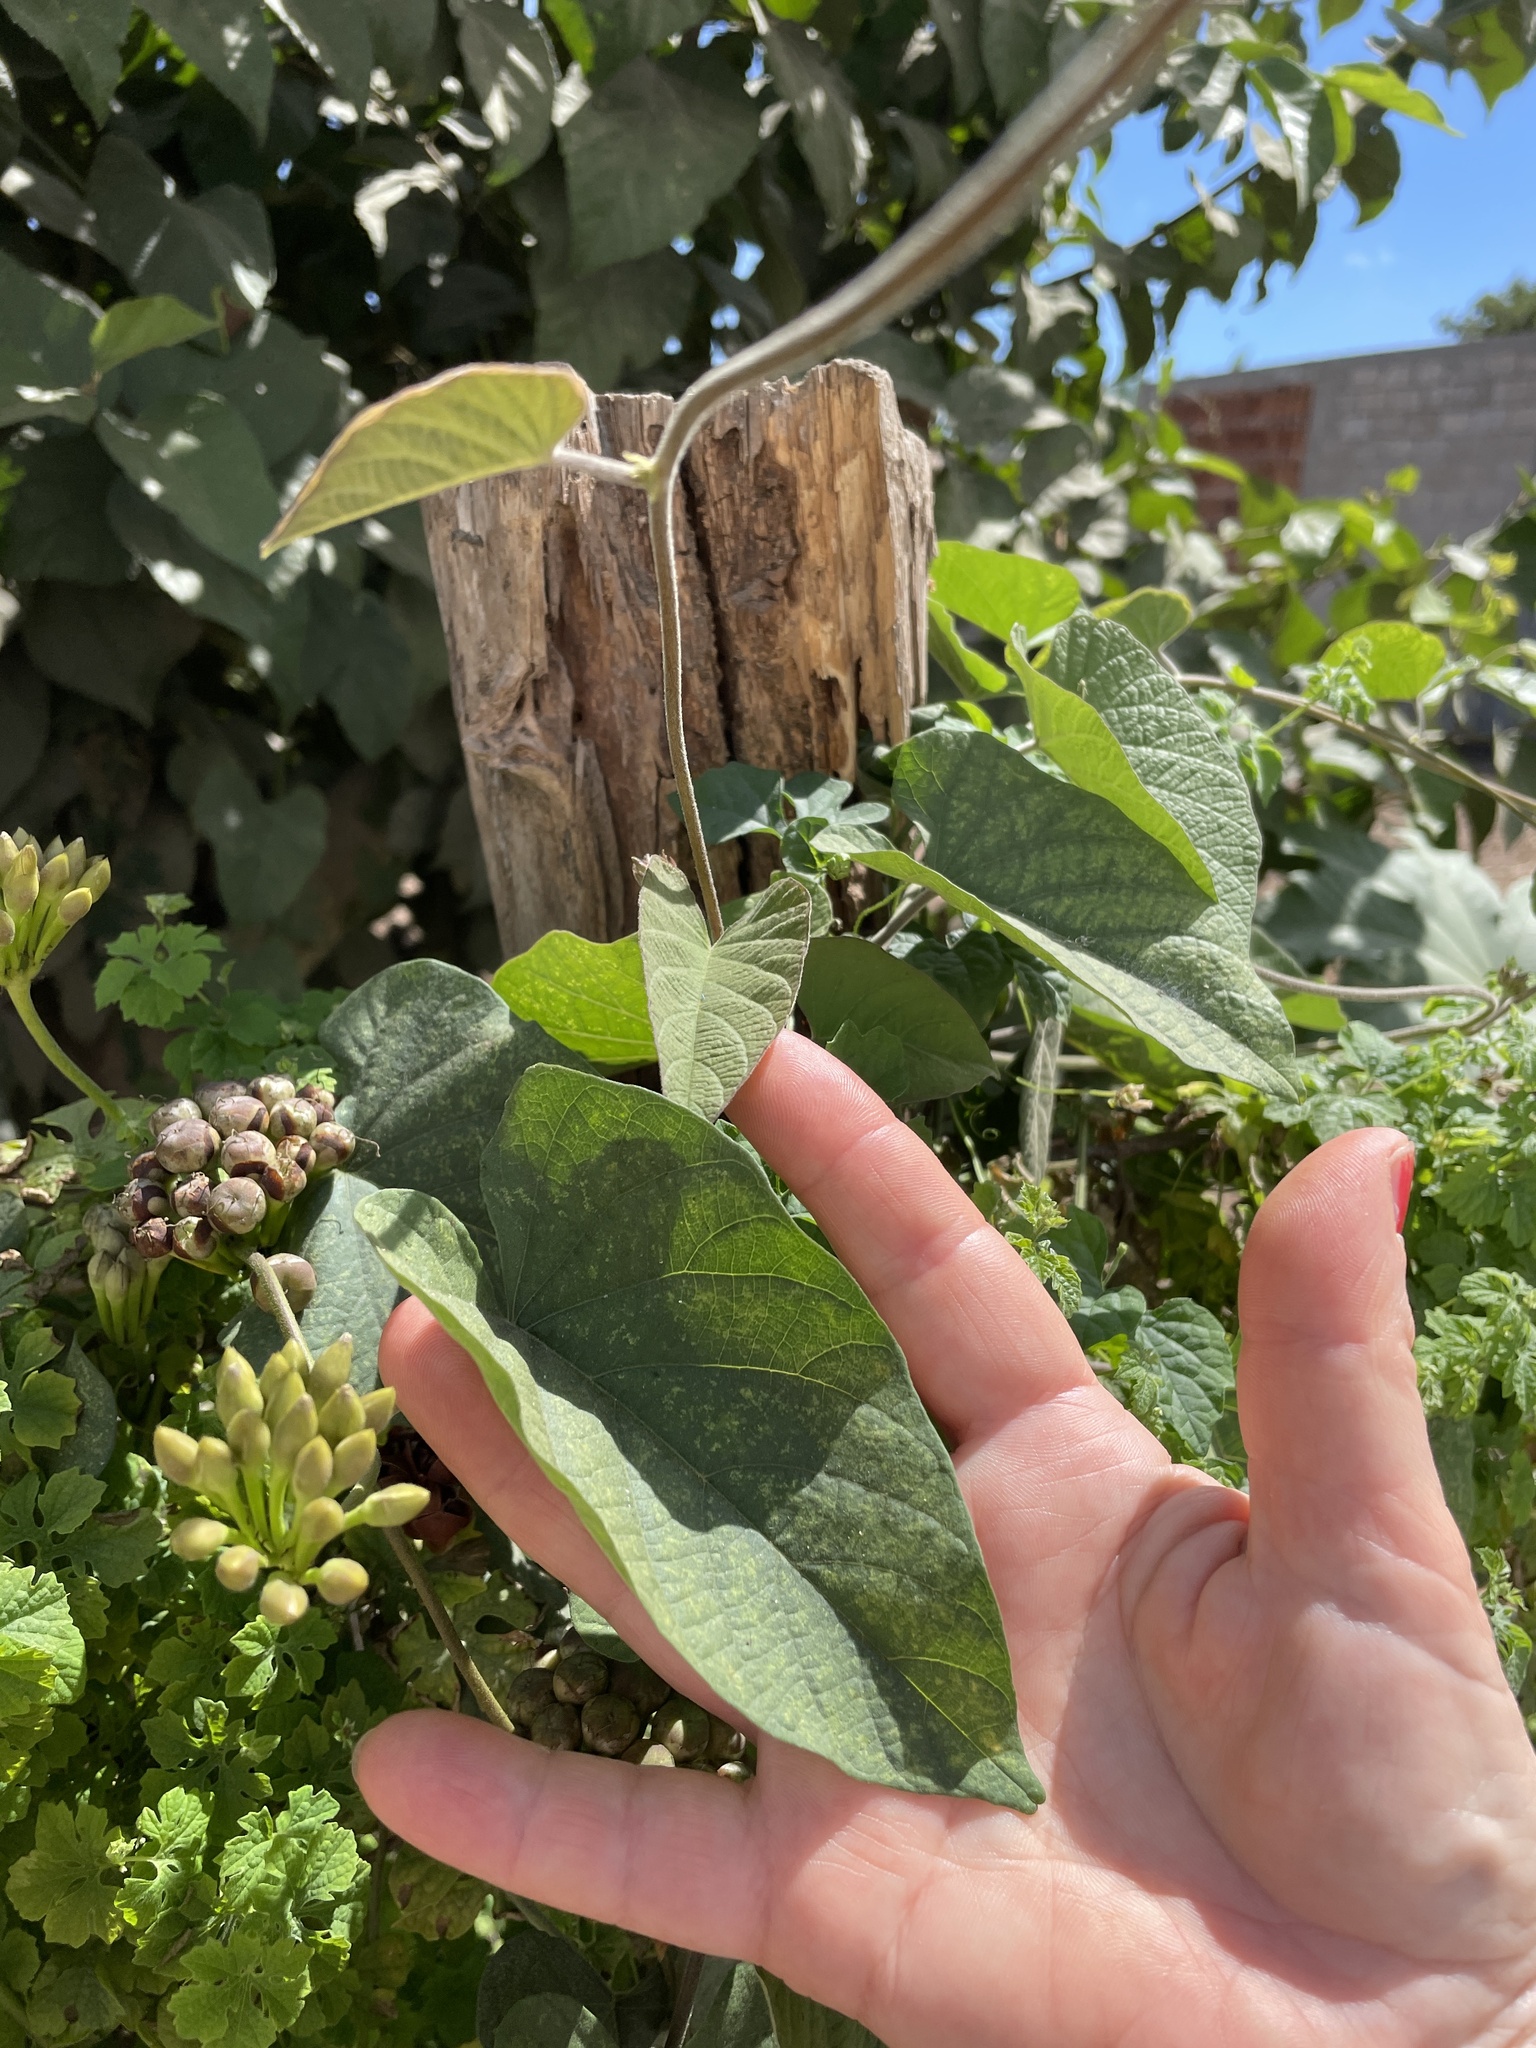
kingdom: Plantae
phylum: Tracheophyta
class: Magnoliopsida
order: Solanales
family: Convolvulaceae
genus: Camonea
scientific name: Camonea umbellata
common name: Hogvine
